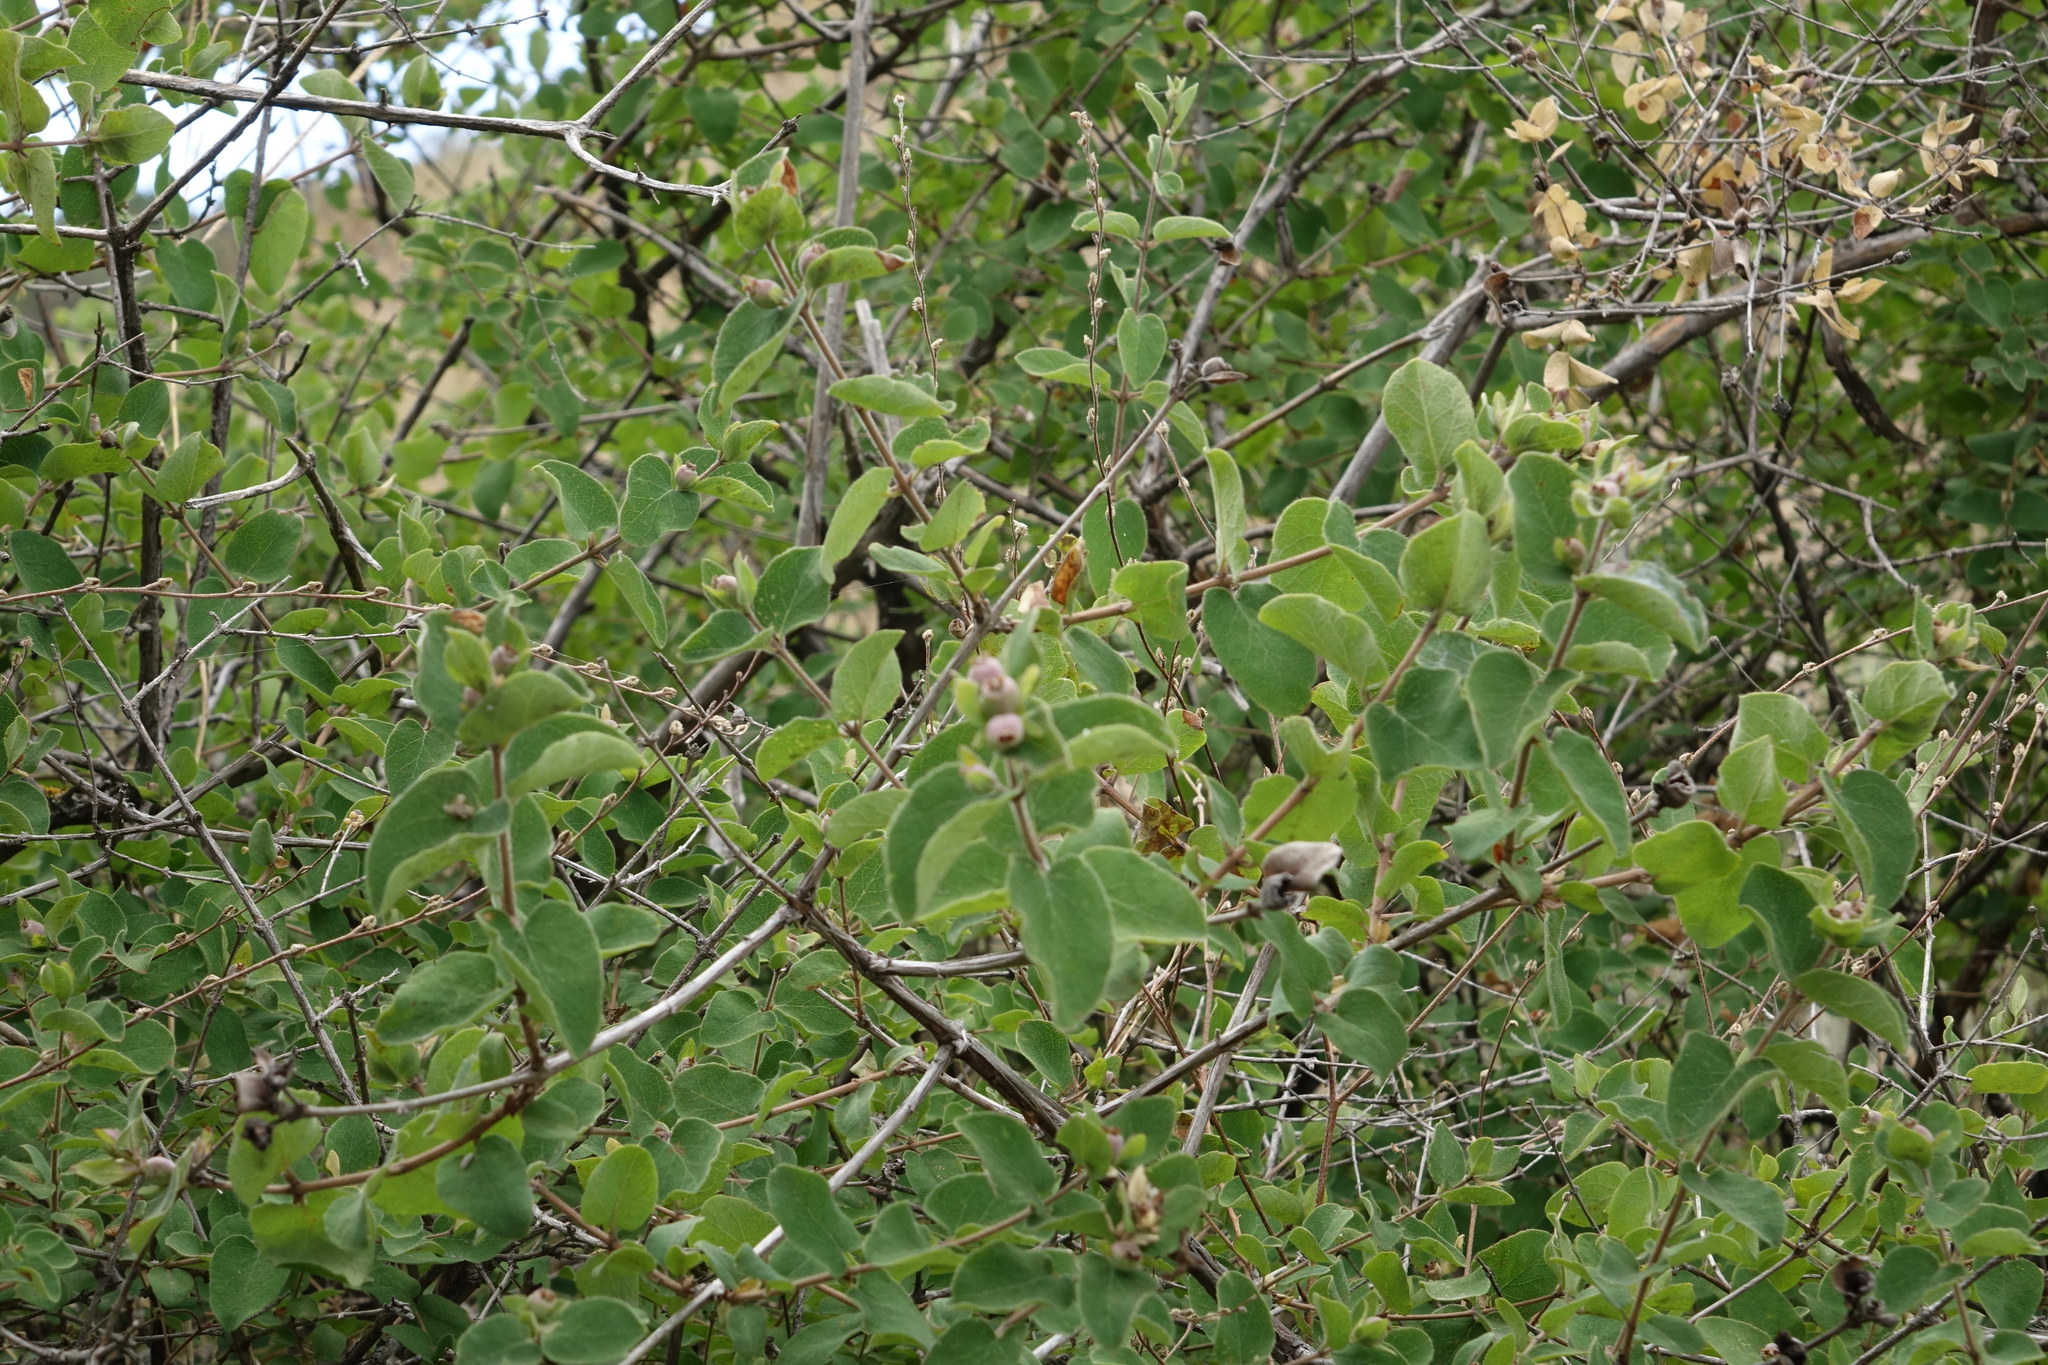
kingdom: Plantae
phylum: Tracheophyta
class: Magnoliopsida
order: Dipsacales
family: Caprifoliaceae
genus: Lonicera
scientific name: Lonicera iberica
